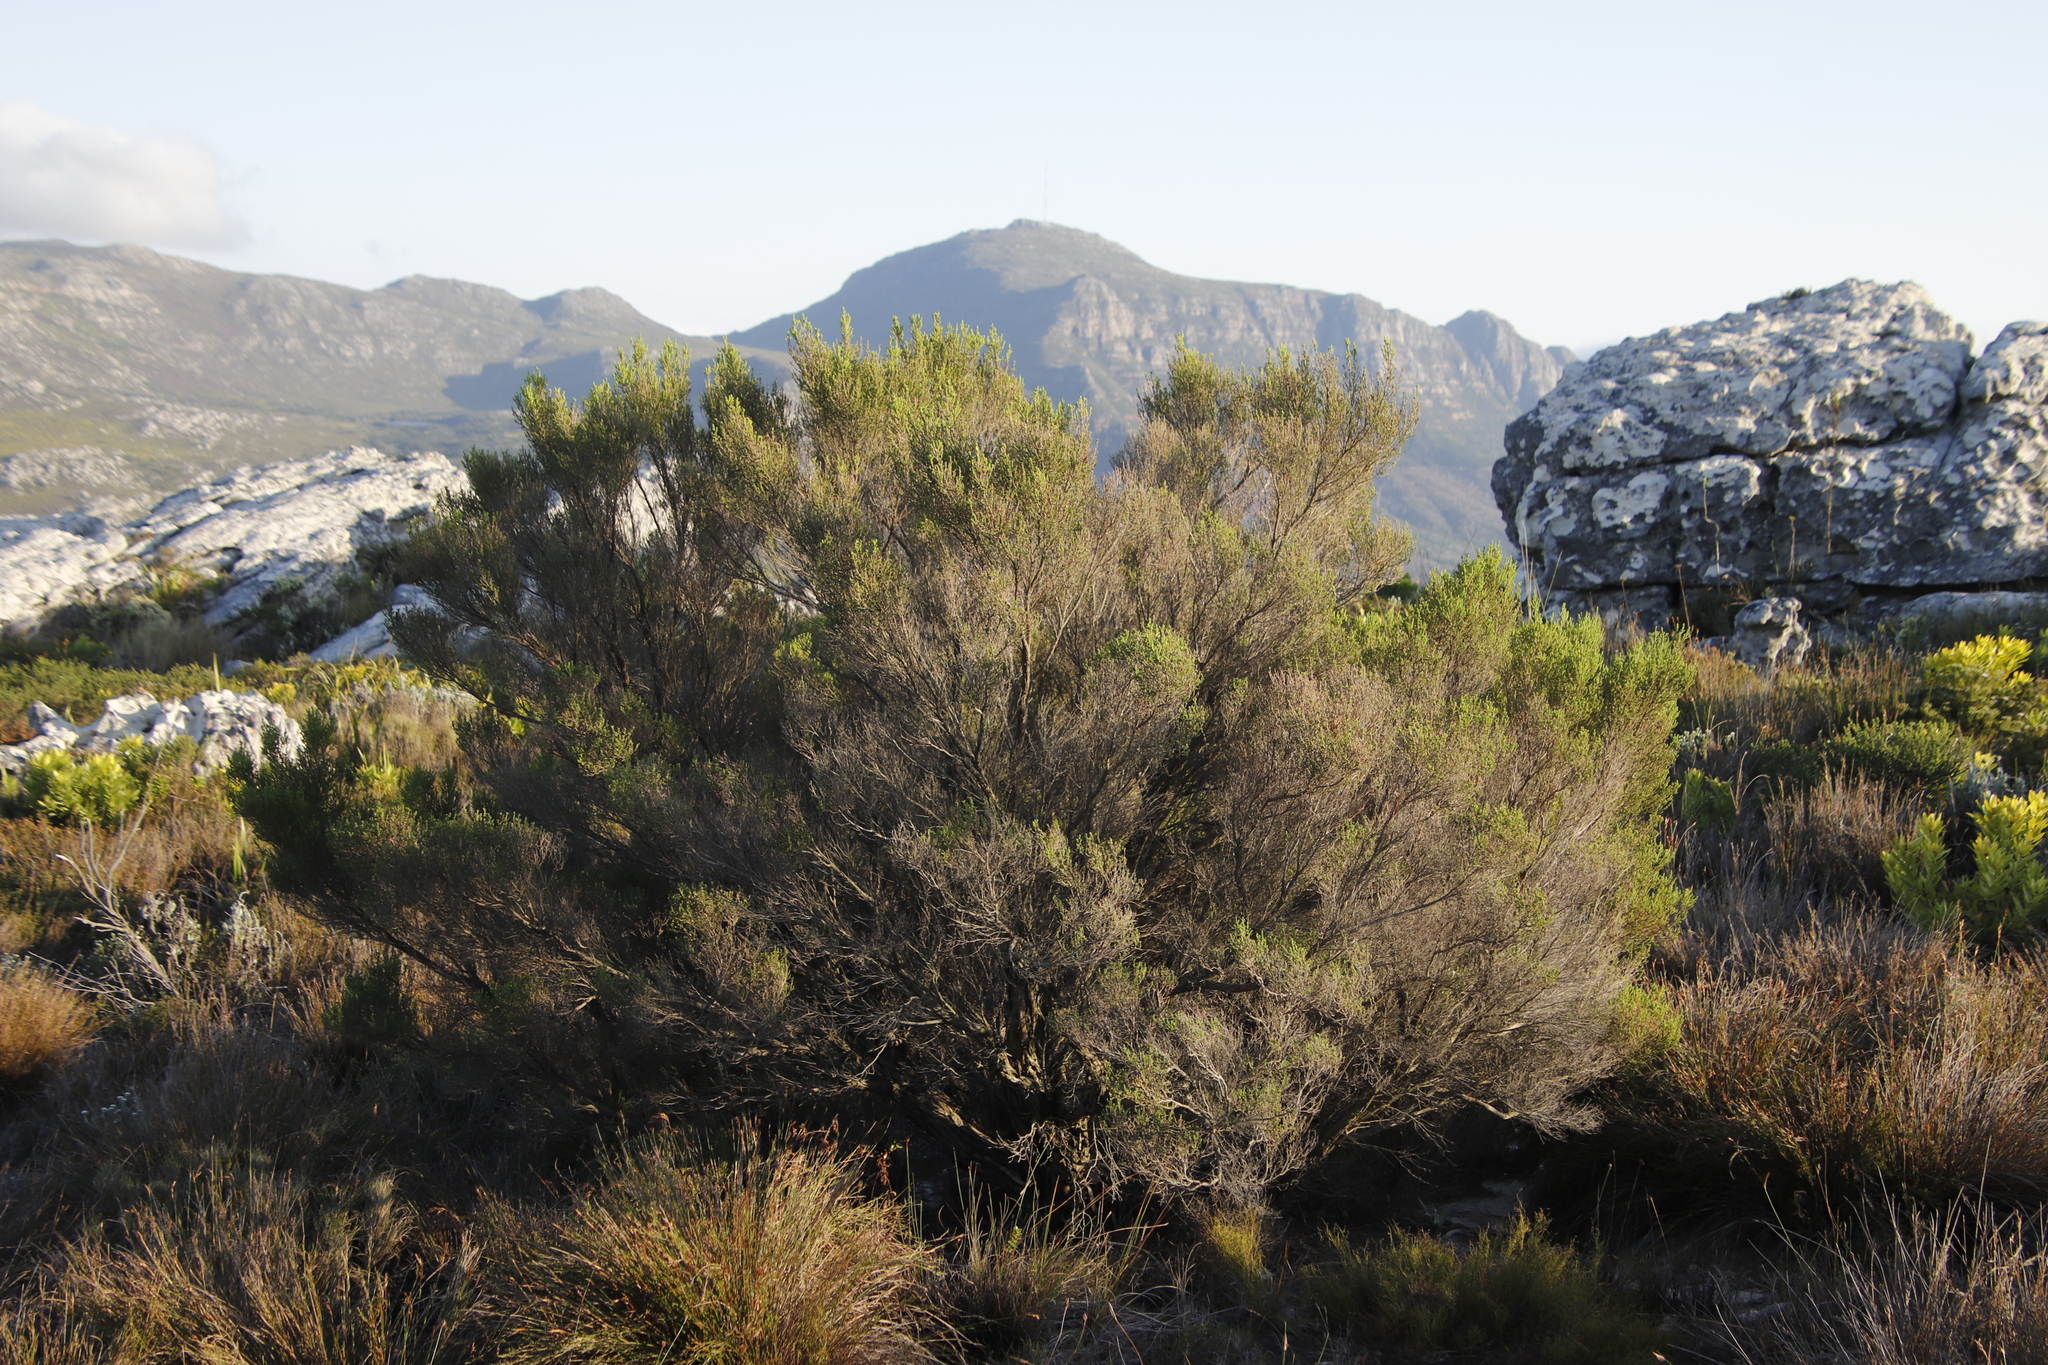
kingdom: Plantae
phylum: Tracheophyta
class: Magnoliopsida
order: Ericales
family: Ericaceae
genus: Erica
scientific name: Erica tristis
